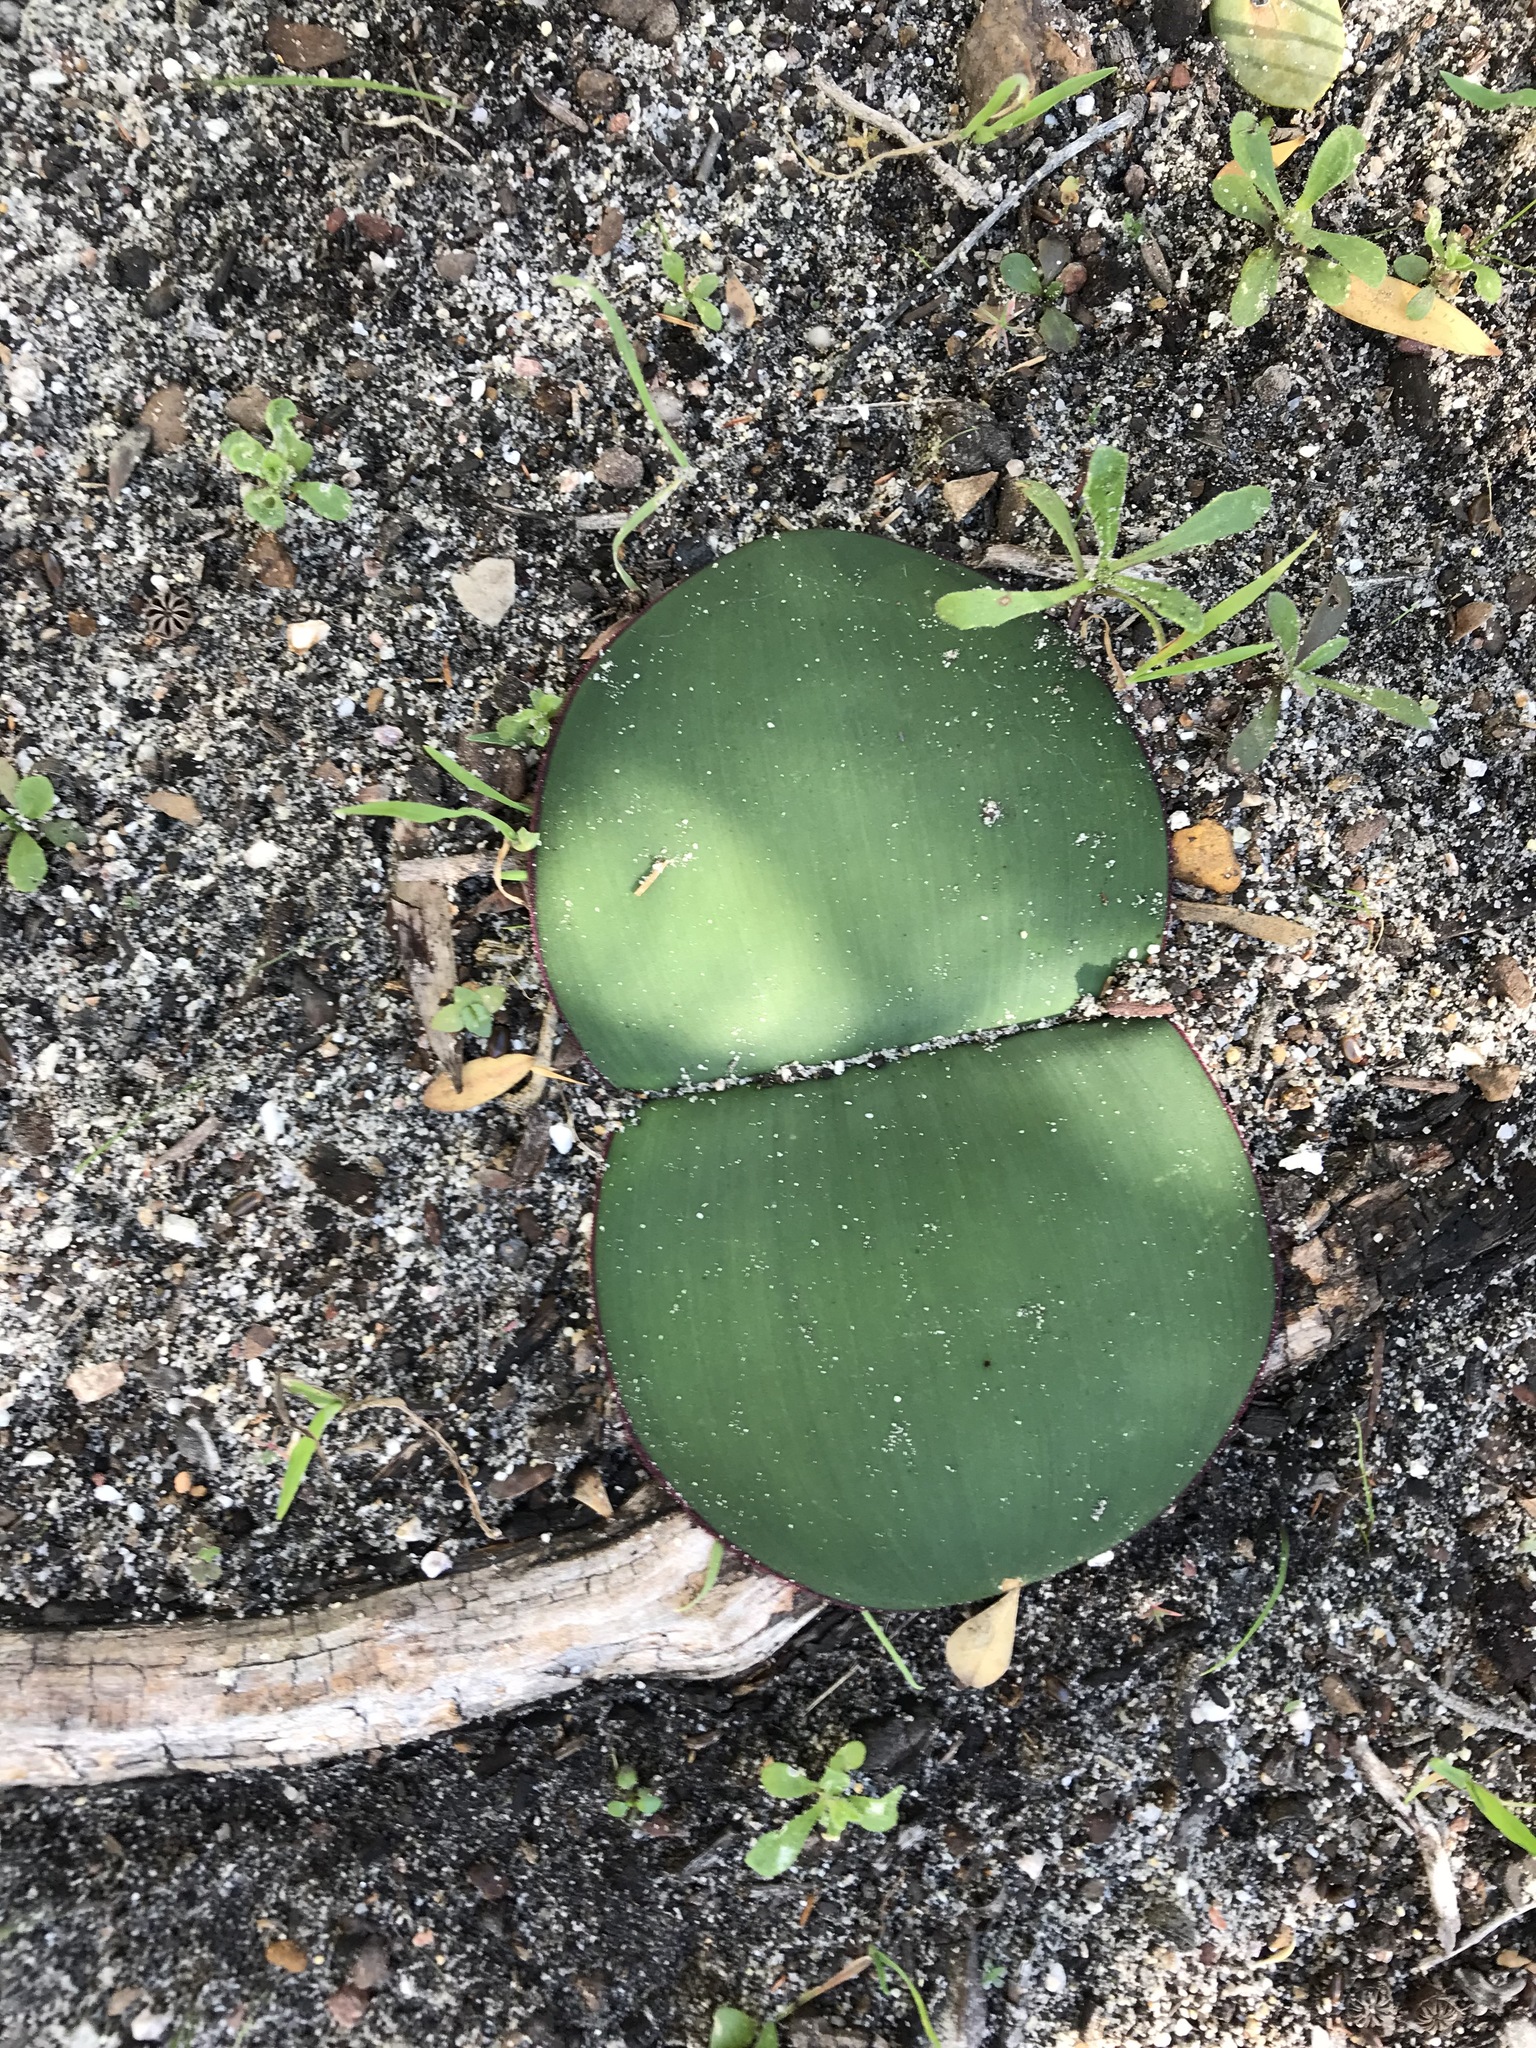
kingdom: Plantae
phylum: Tracheophyta
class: Liliopsida
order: Asparagales
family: Amaryllidaceae
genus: Haemanthus
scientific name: Haemanthus sanguineus
